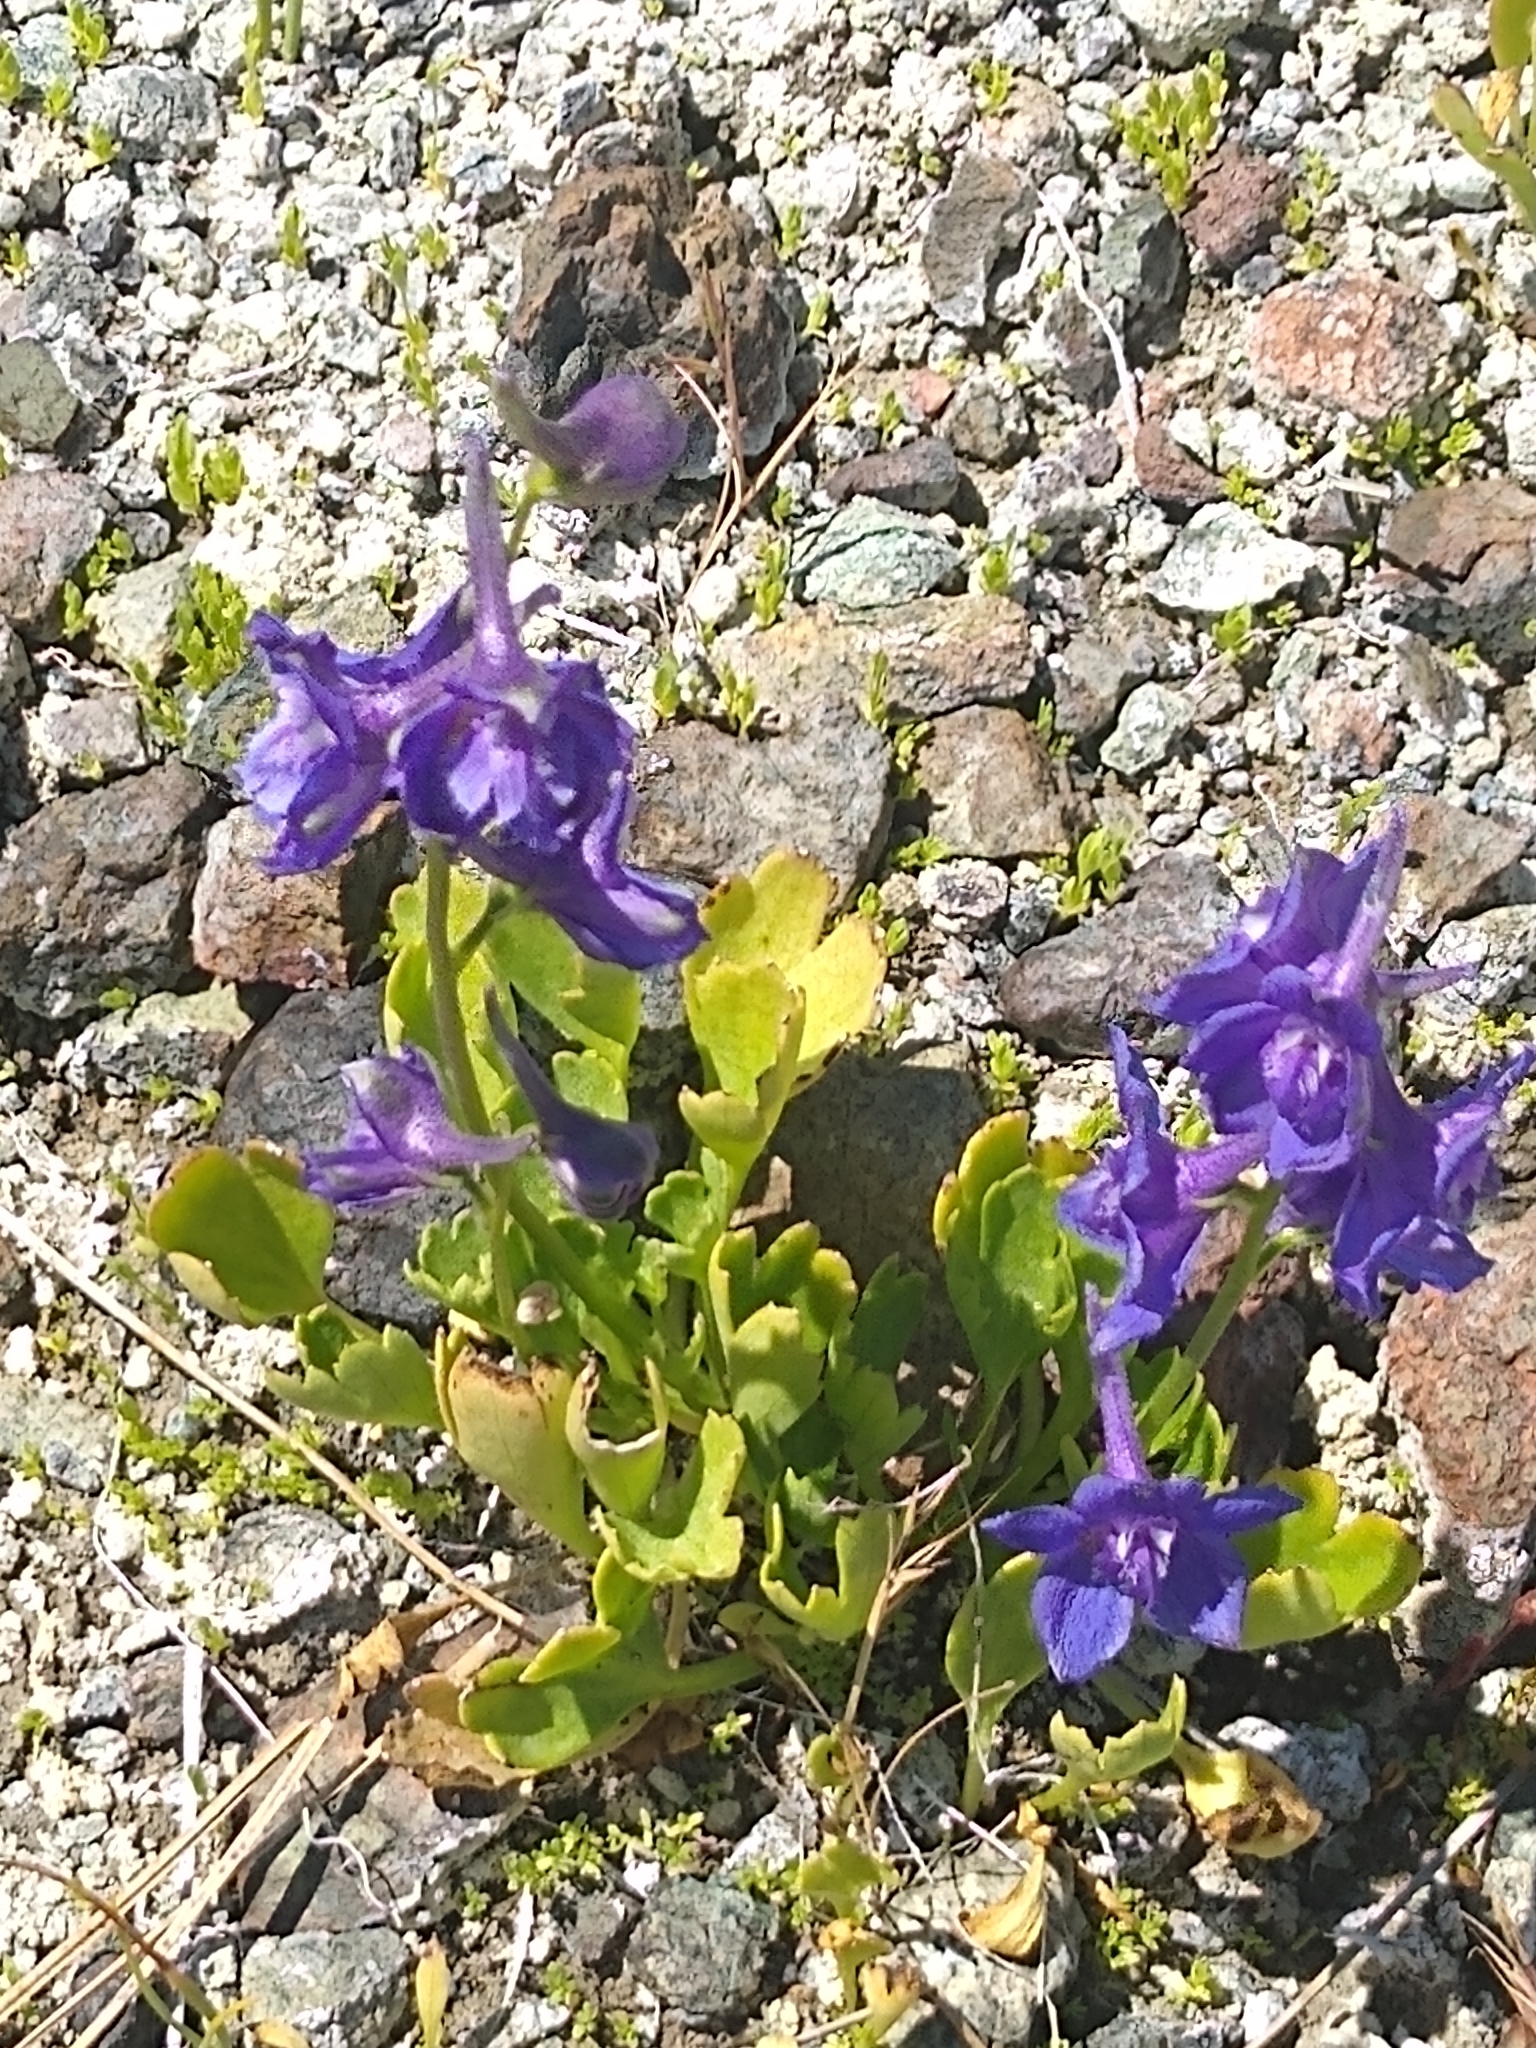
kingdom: Plantae
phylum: Tracheophyta
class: Magnoliopsida
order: Ranunculales
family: Ranunculaceae
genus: Delphinium
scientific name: Delphinium uliginosum
